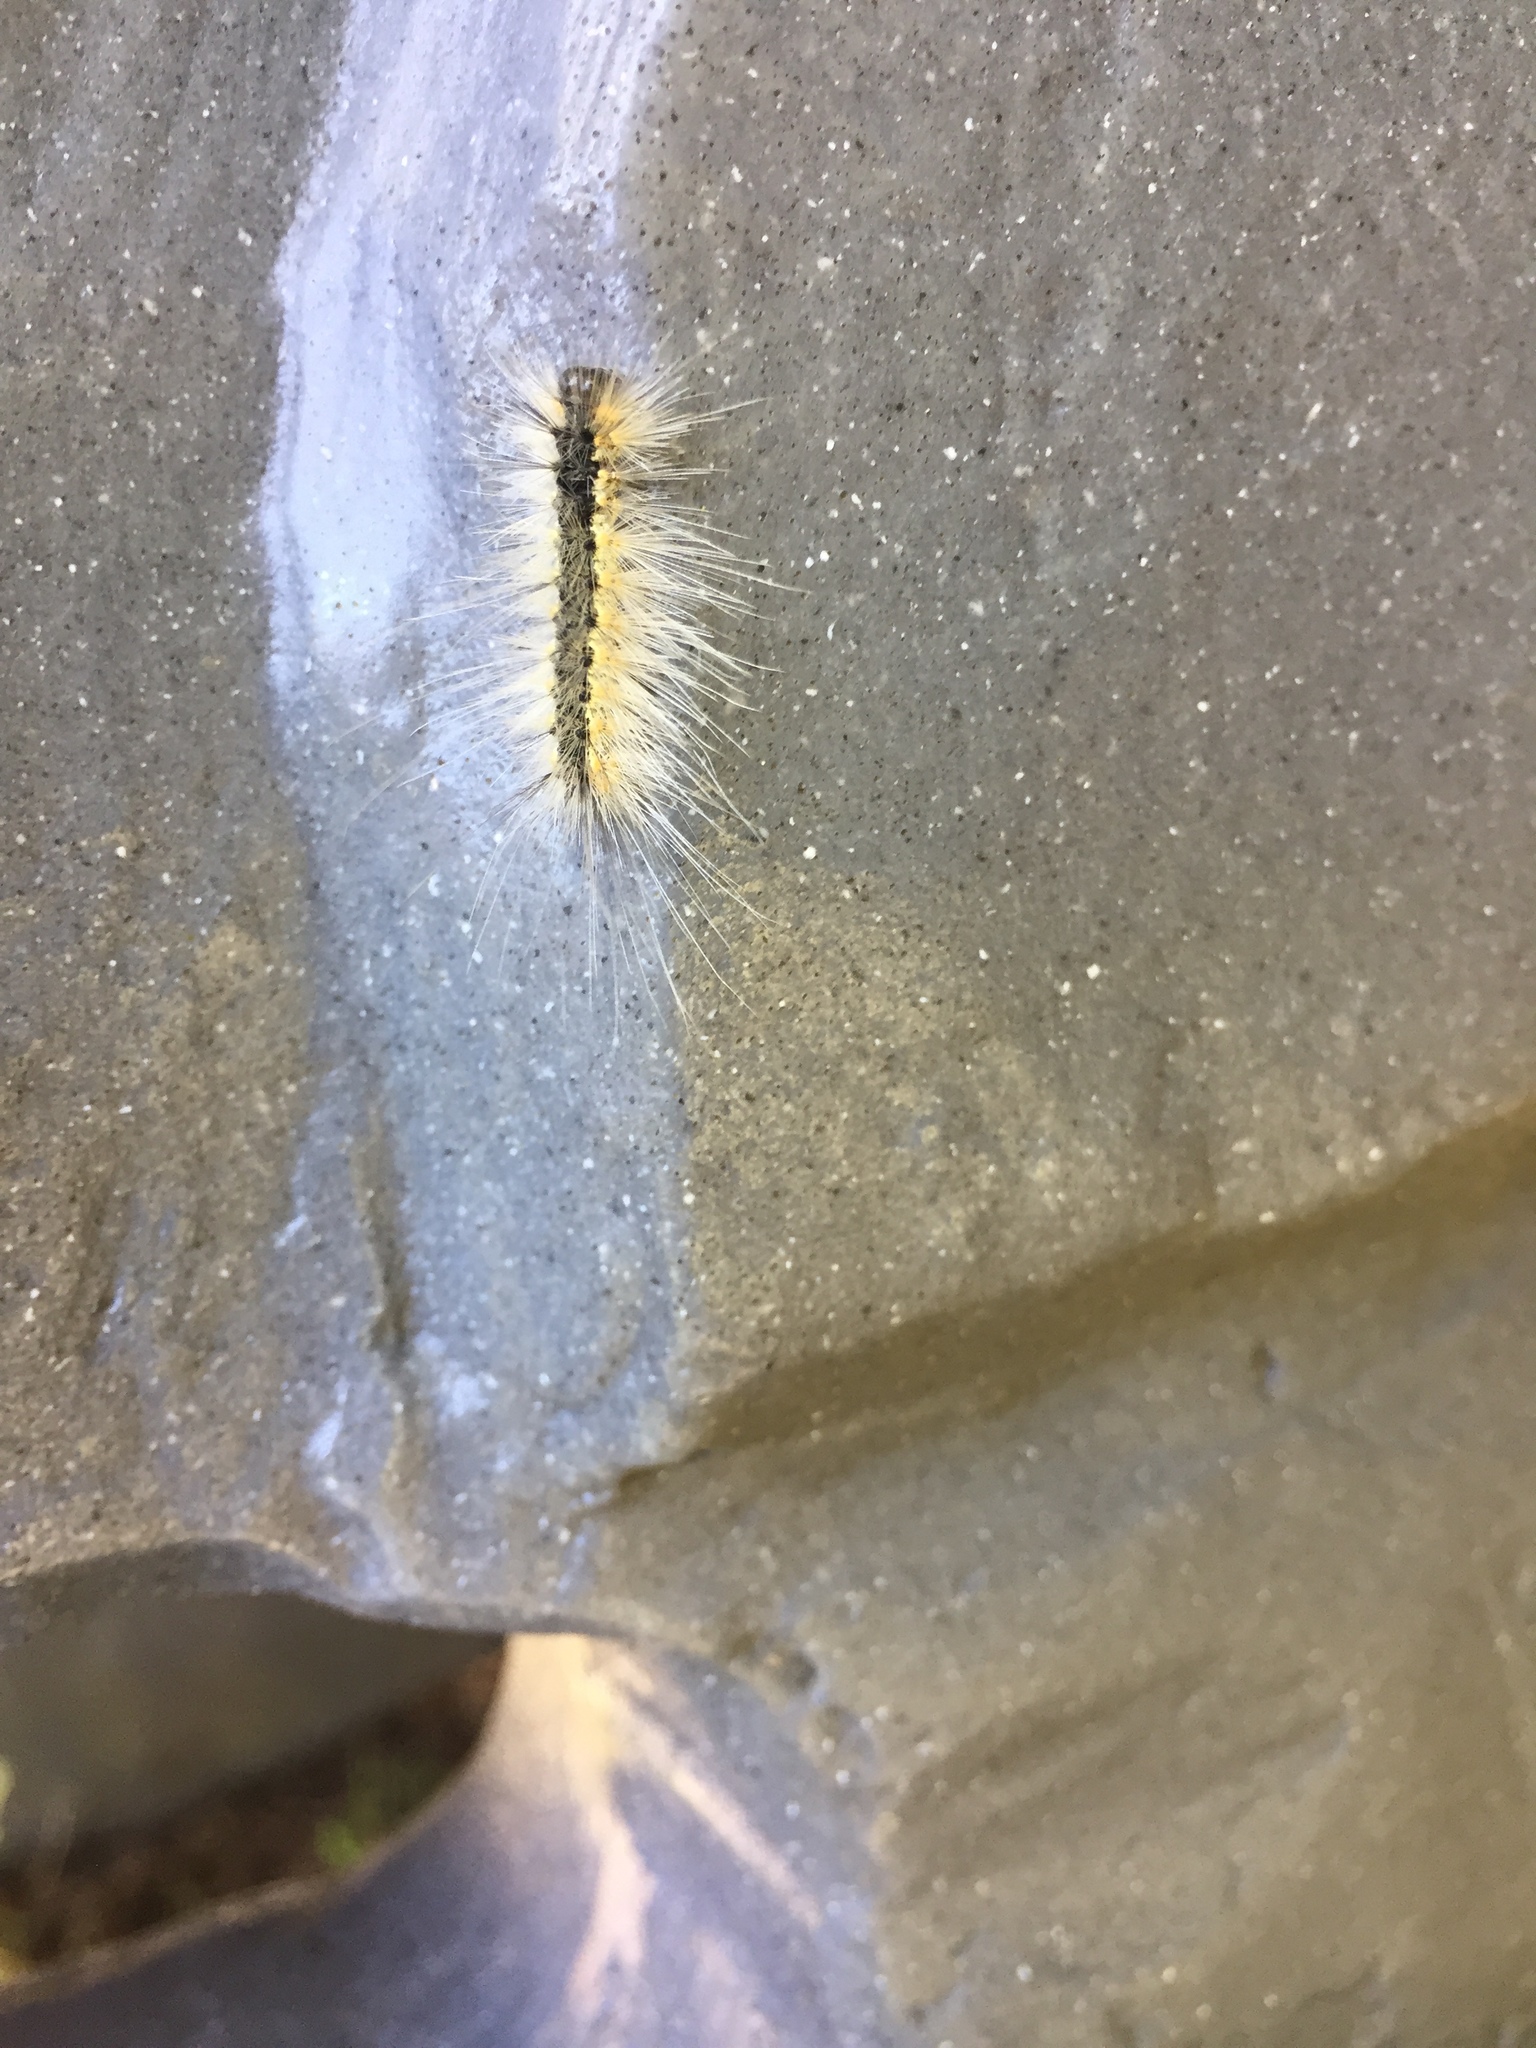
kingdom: Animalia
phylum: Arthropoda
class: Insecta
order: Lepidoptera
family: Erebidae
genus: Hyphantria
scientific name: Hyphantria cunea
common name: American white moth
